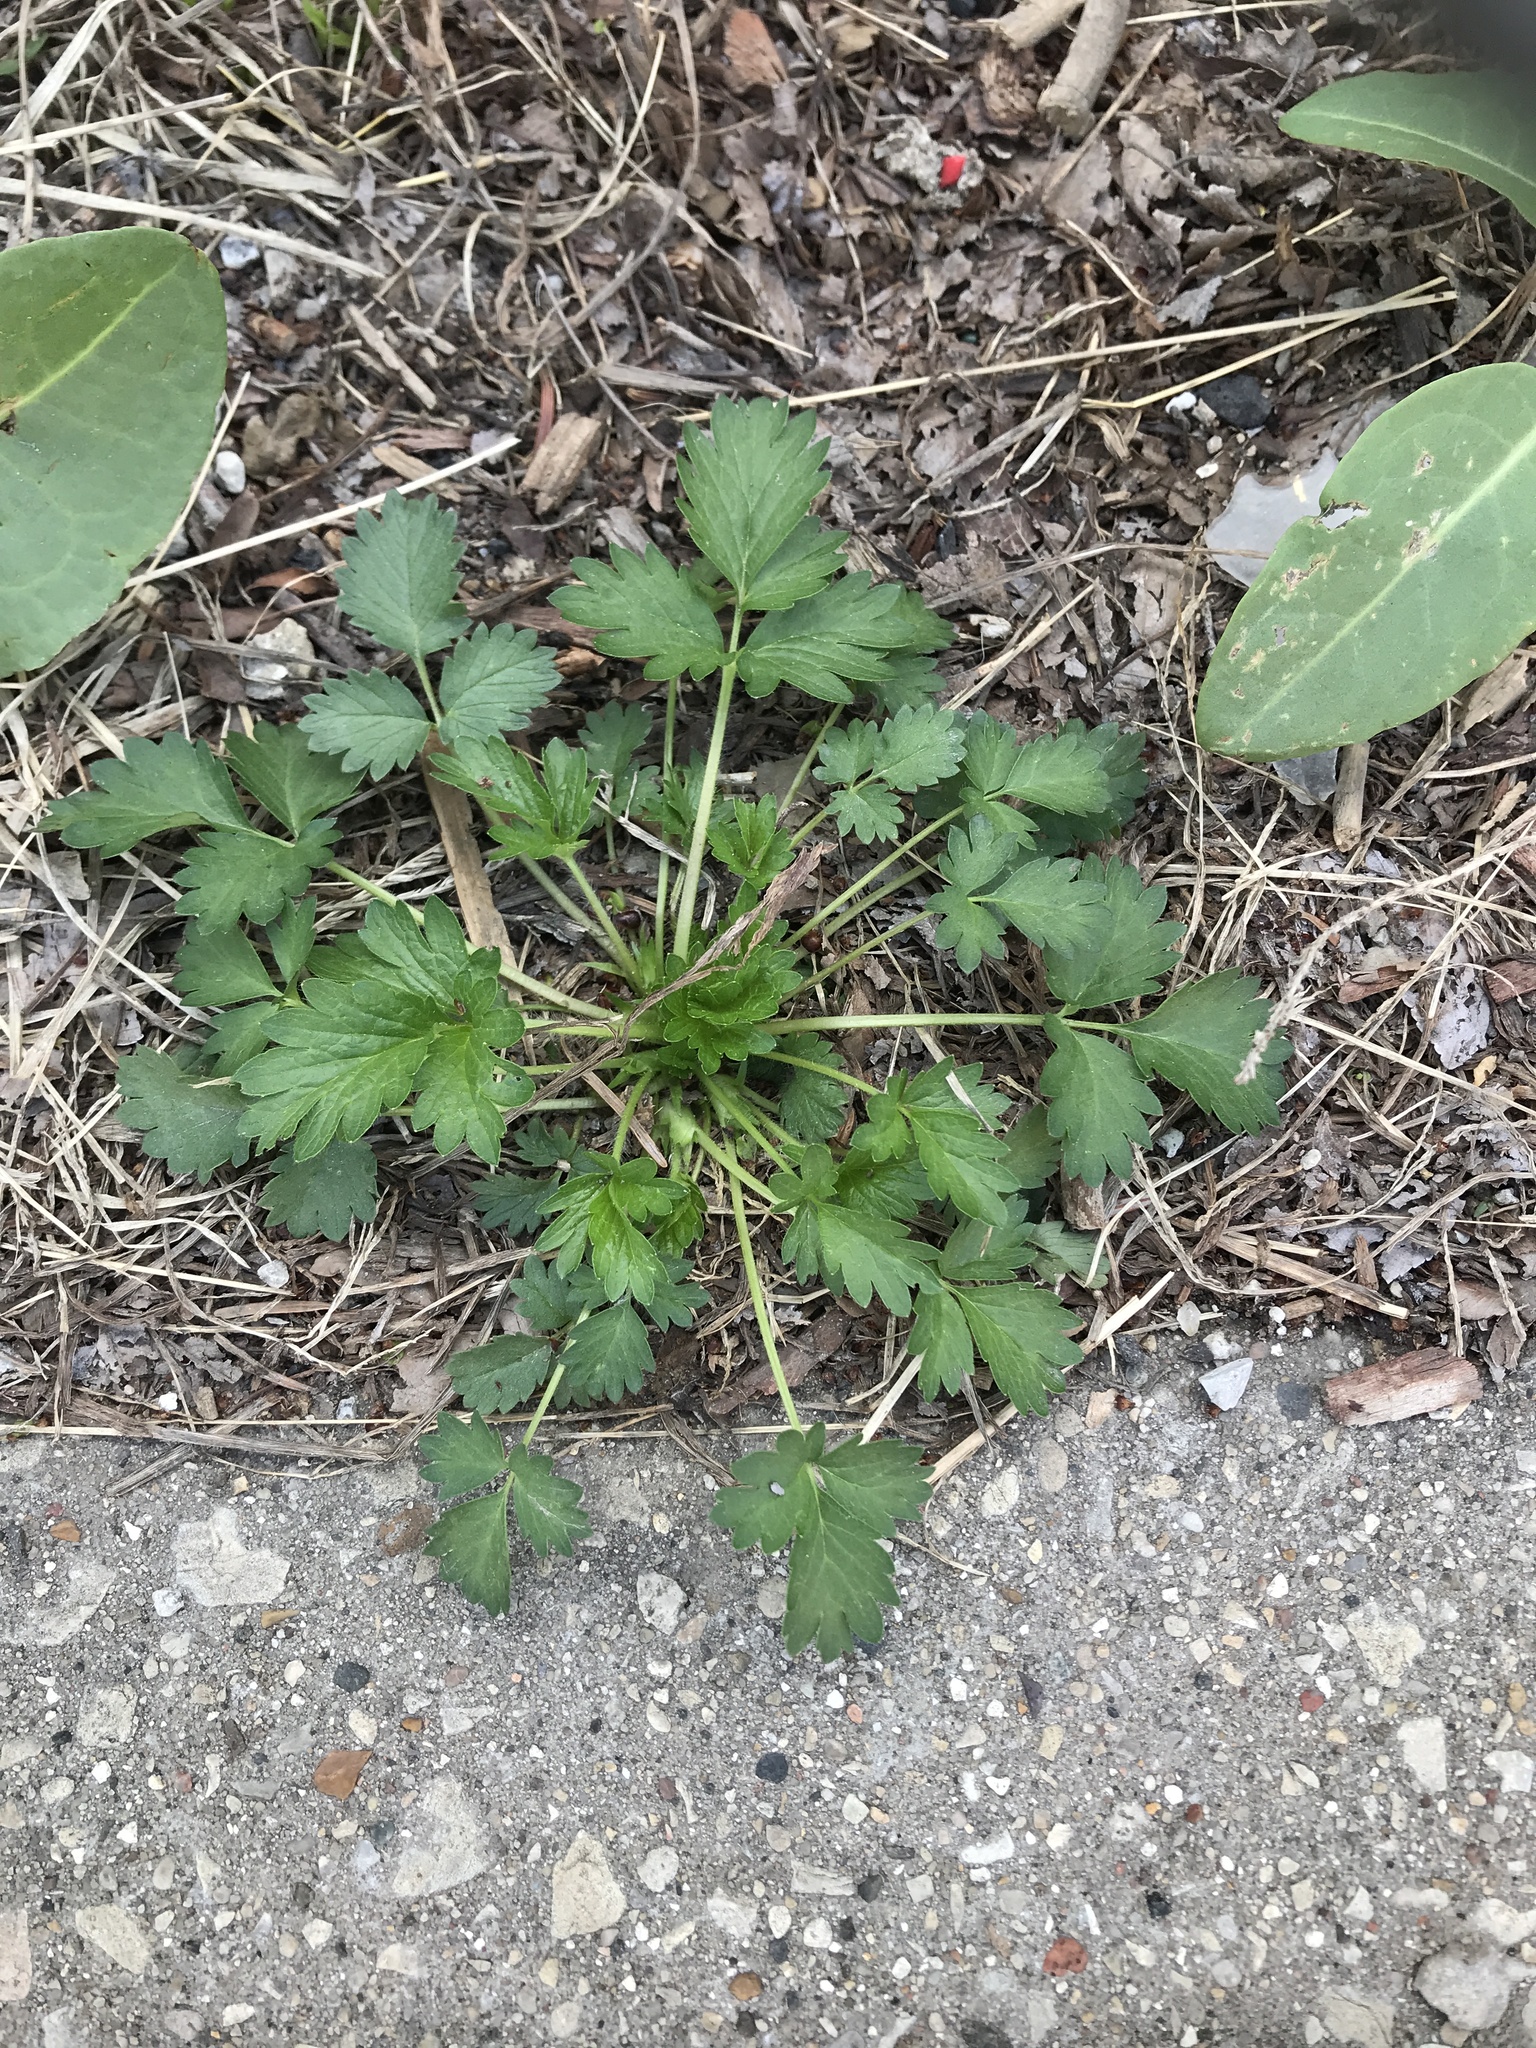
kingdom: Plantae
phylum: Tracheophyta
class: Magnoliopsida
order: Rosales
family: Rosaceae
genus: Potentilla
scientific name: Potentilla norvegica
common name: Ternate-leaved cinquefoil
